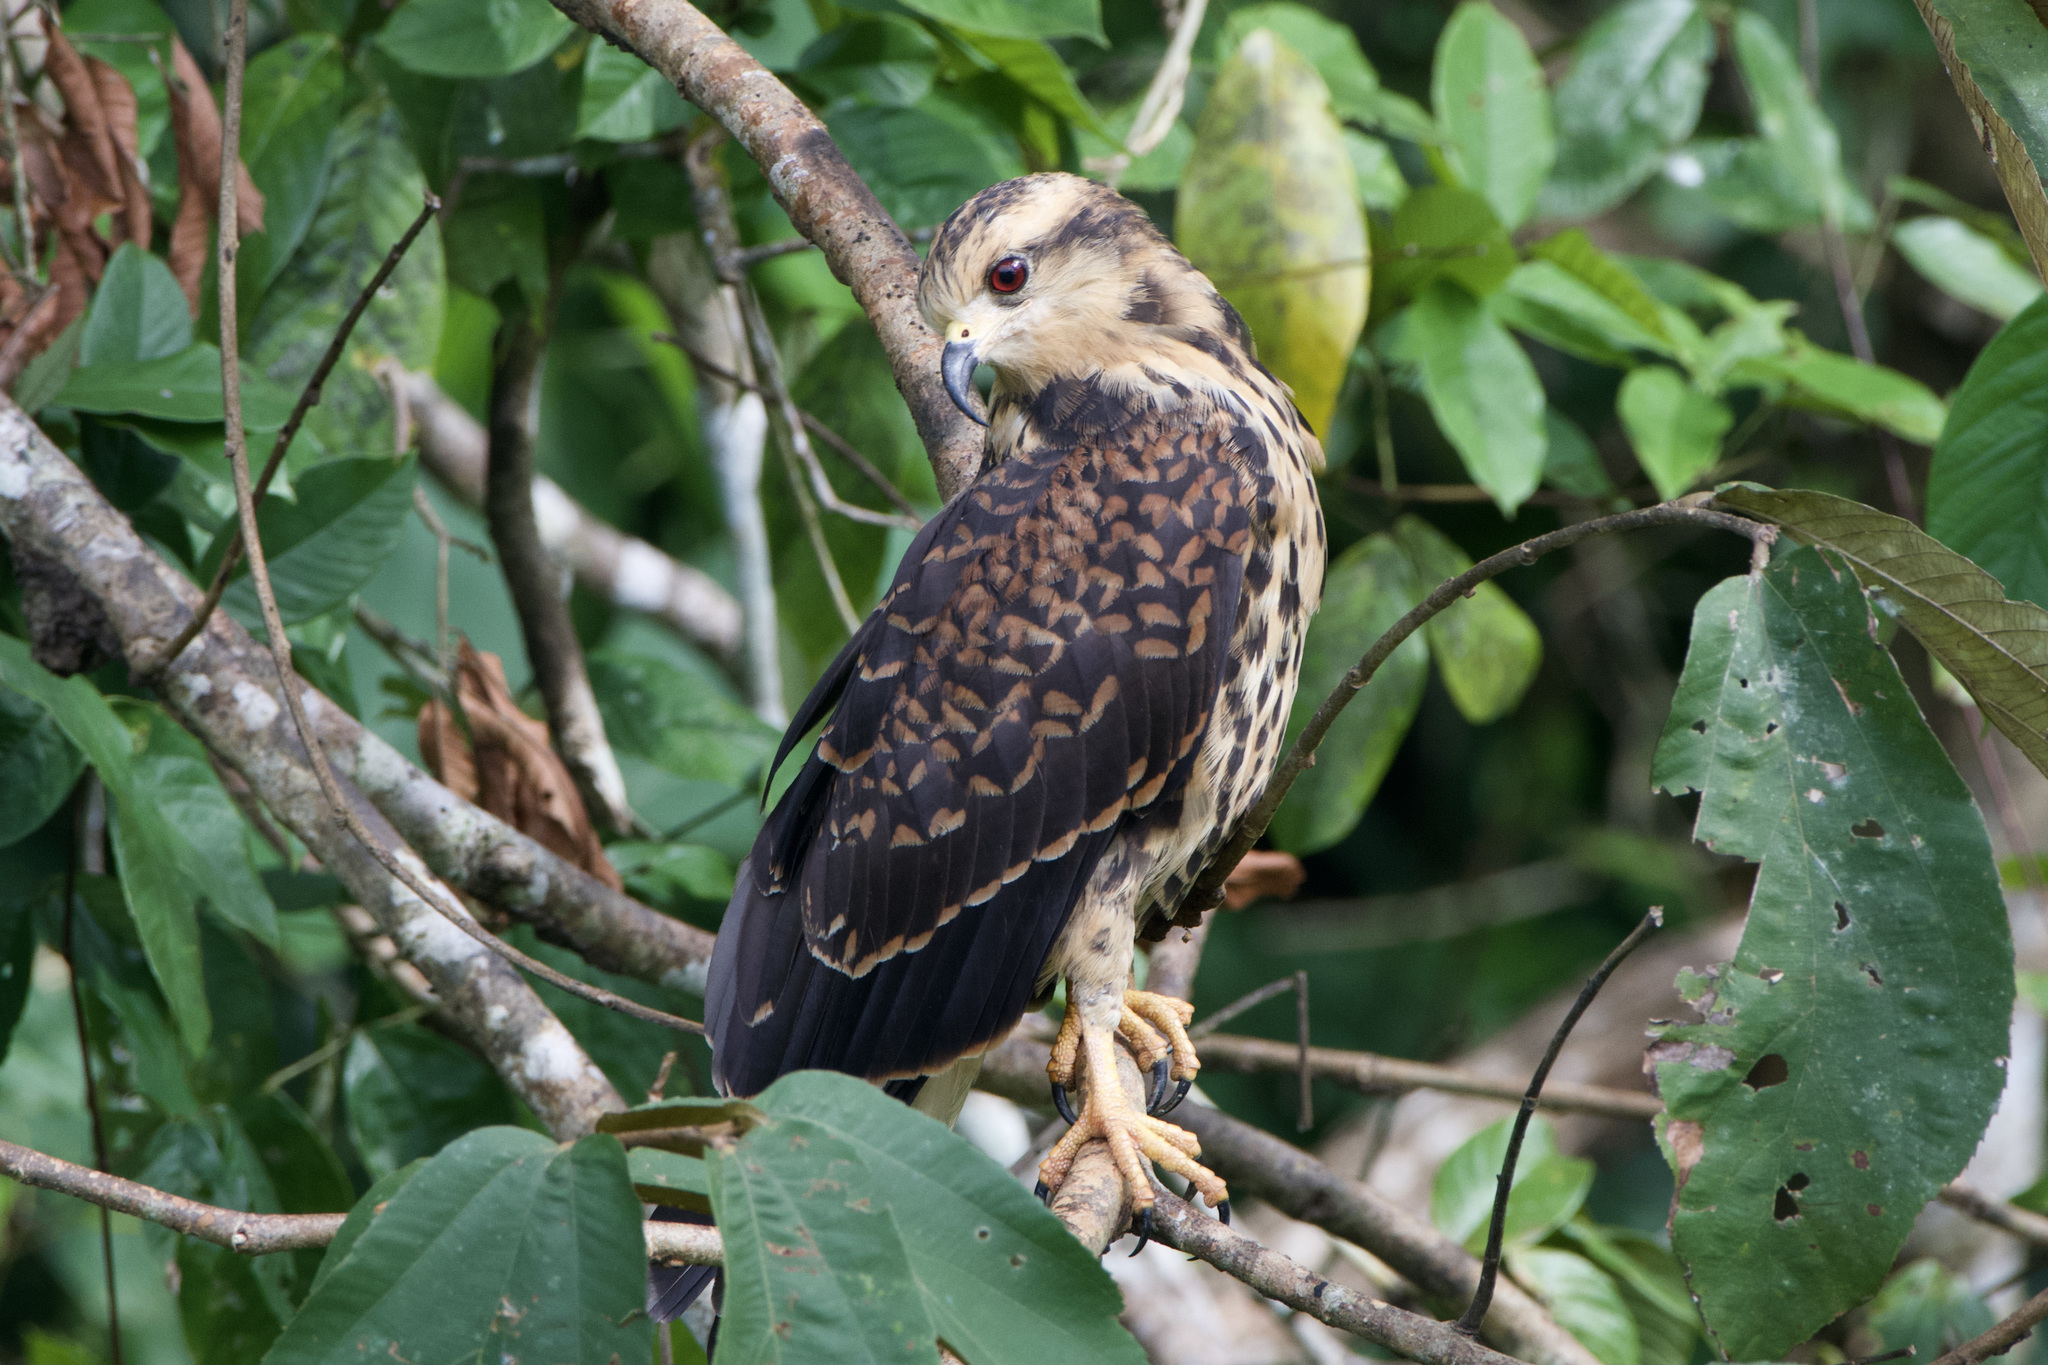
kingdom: Animalia
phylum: Chordata
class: Aves
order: Accipitriformes
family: Accipitridae
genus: Rostrhamus
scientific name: Rostrhamus sociabilis
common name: Snail kite
